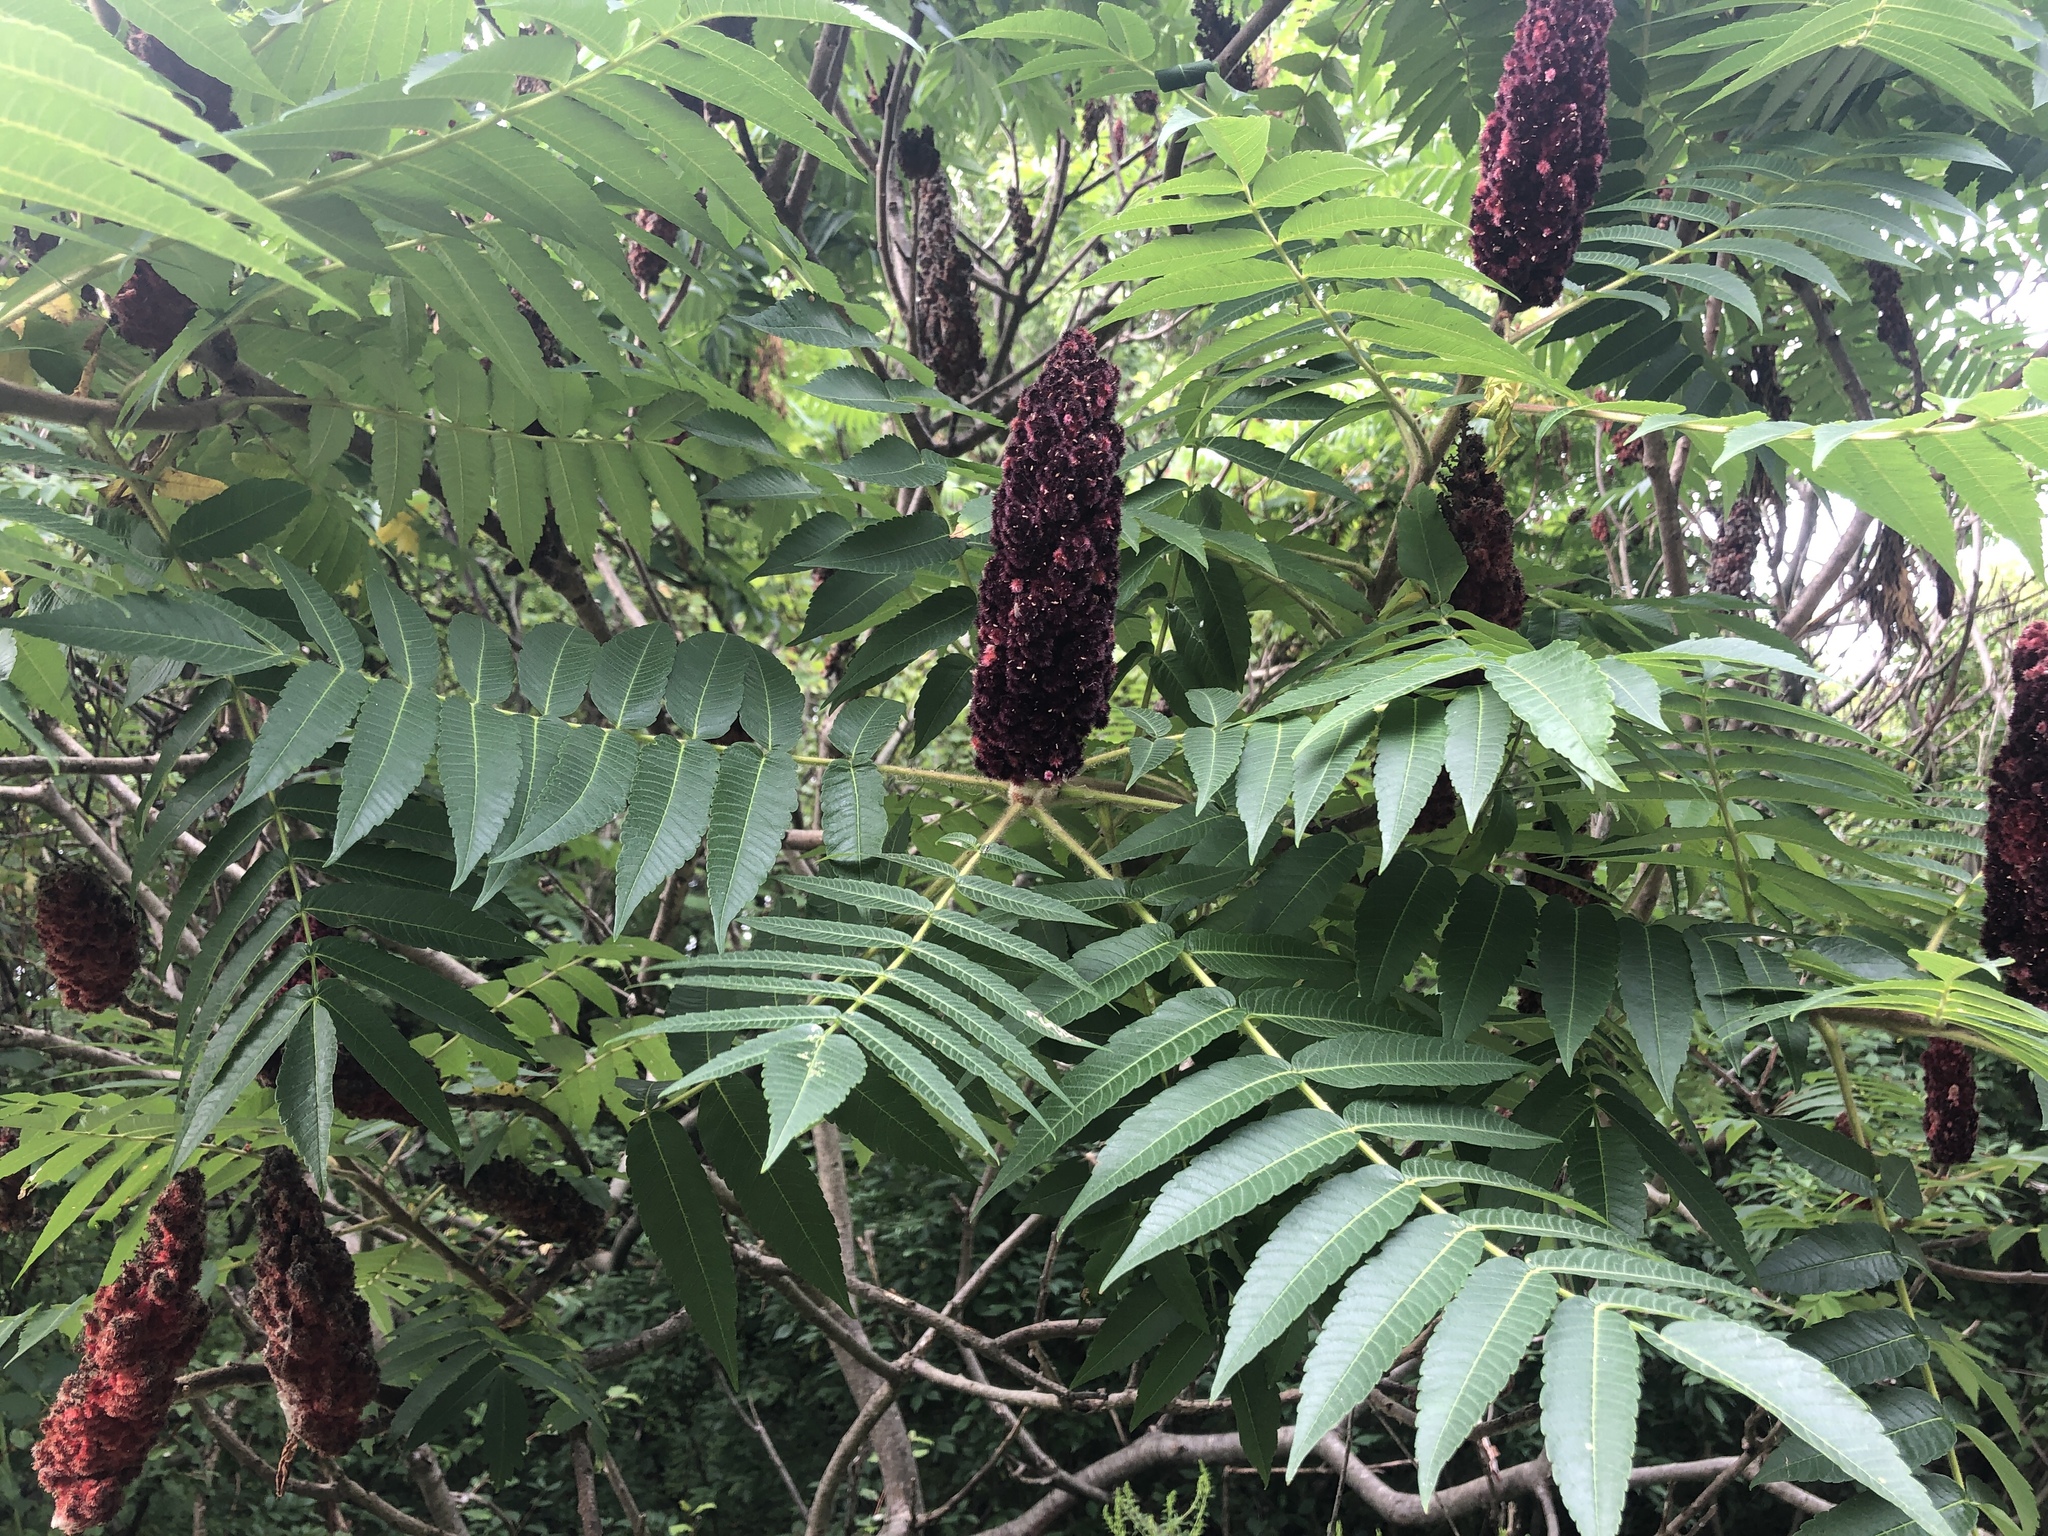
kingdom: Plantae
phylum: Tracheophyta
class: Magnoliopsida
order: Sapindales
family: Anacardiaceae
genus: Rhus
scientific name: Rhus typhina
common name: Staghorn sumac
